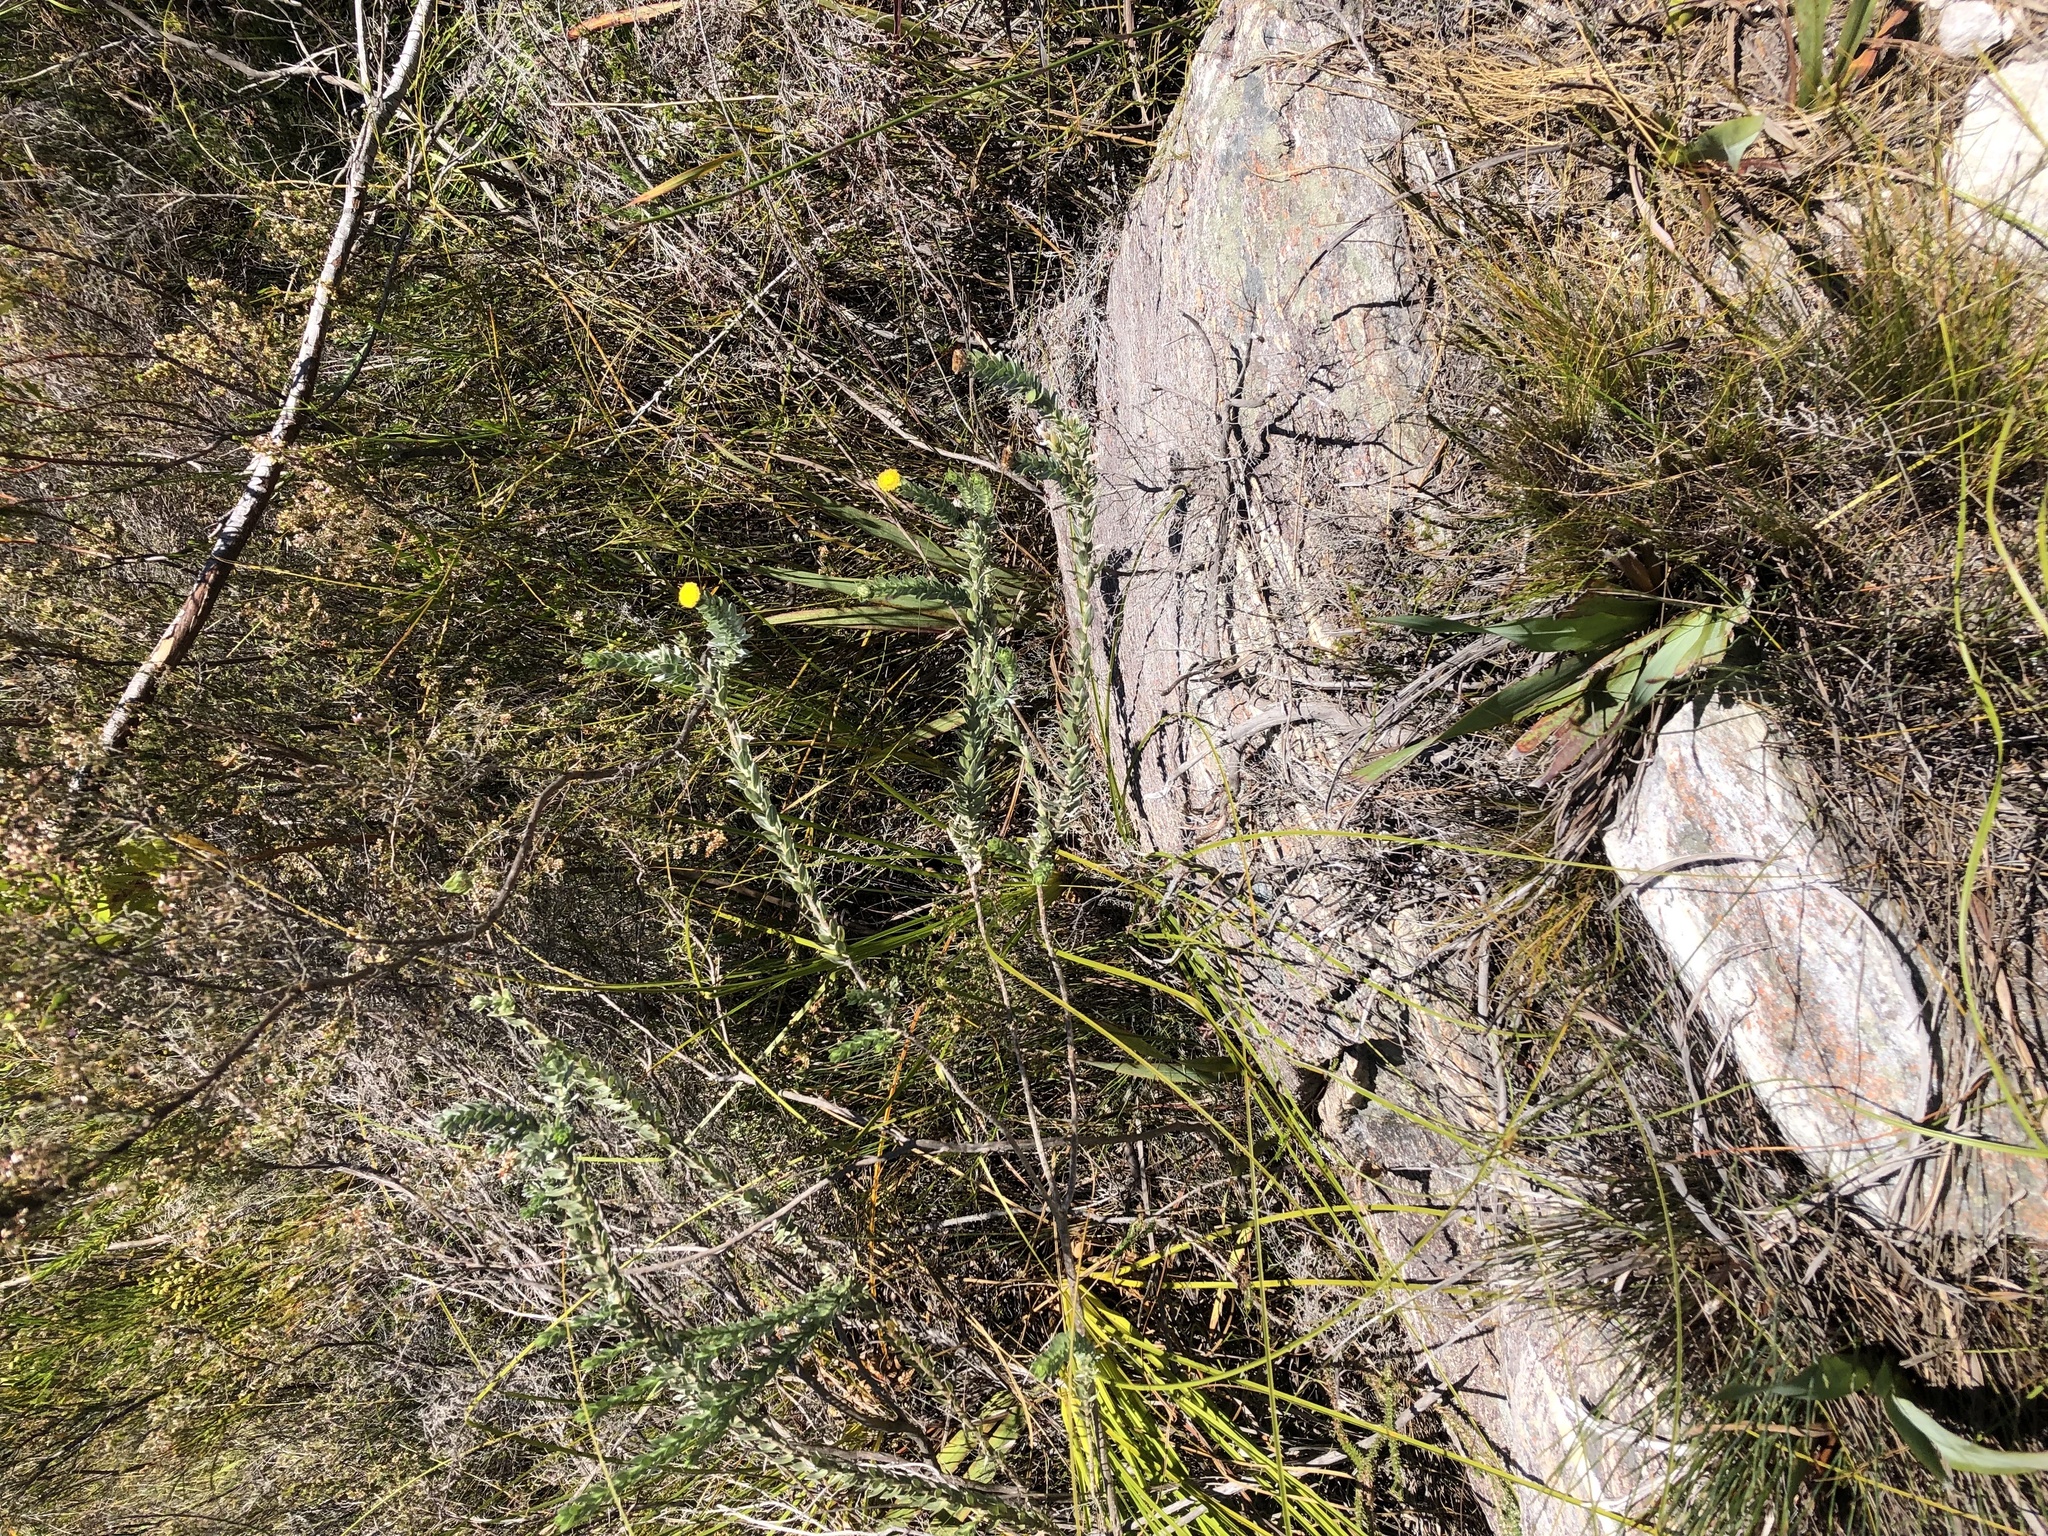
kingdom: Plantae
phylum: Tracheophyta
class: Magnoliopsida
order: Asterales
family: Asteraceae
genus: Schistostephium
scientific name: Schistostephium umbellatum
